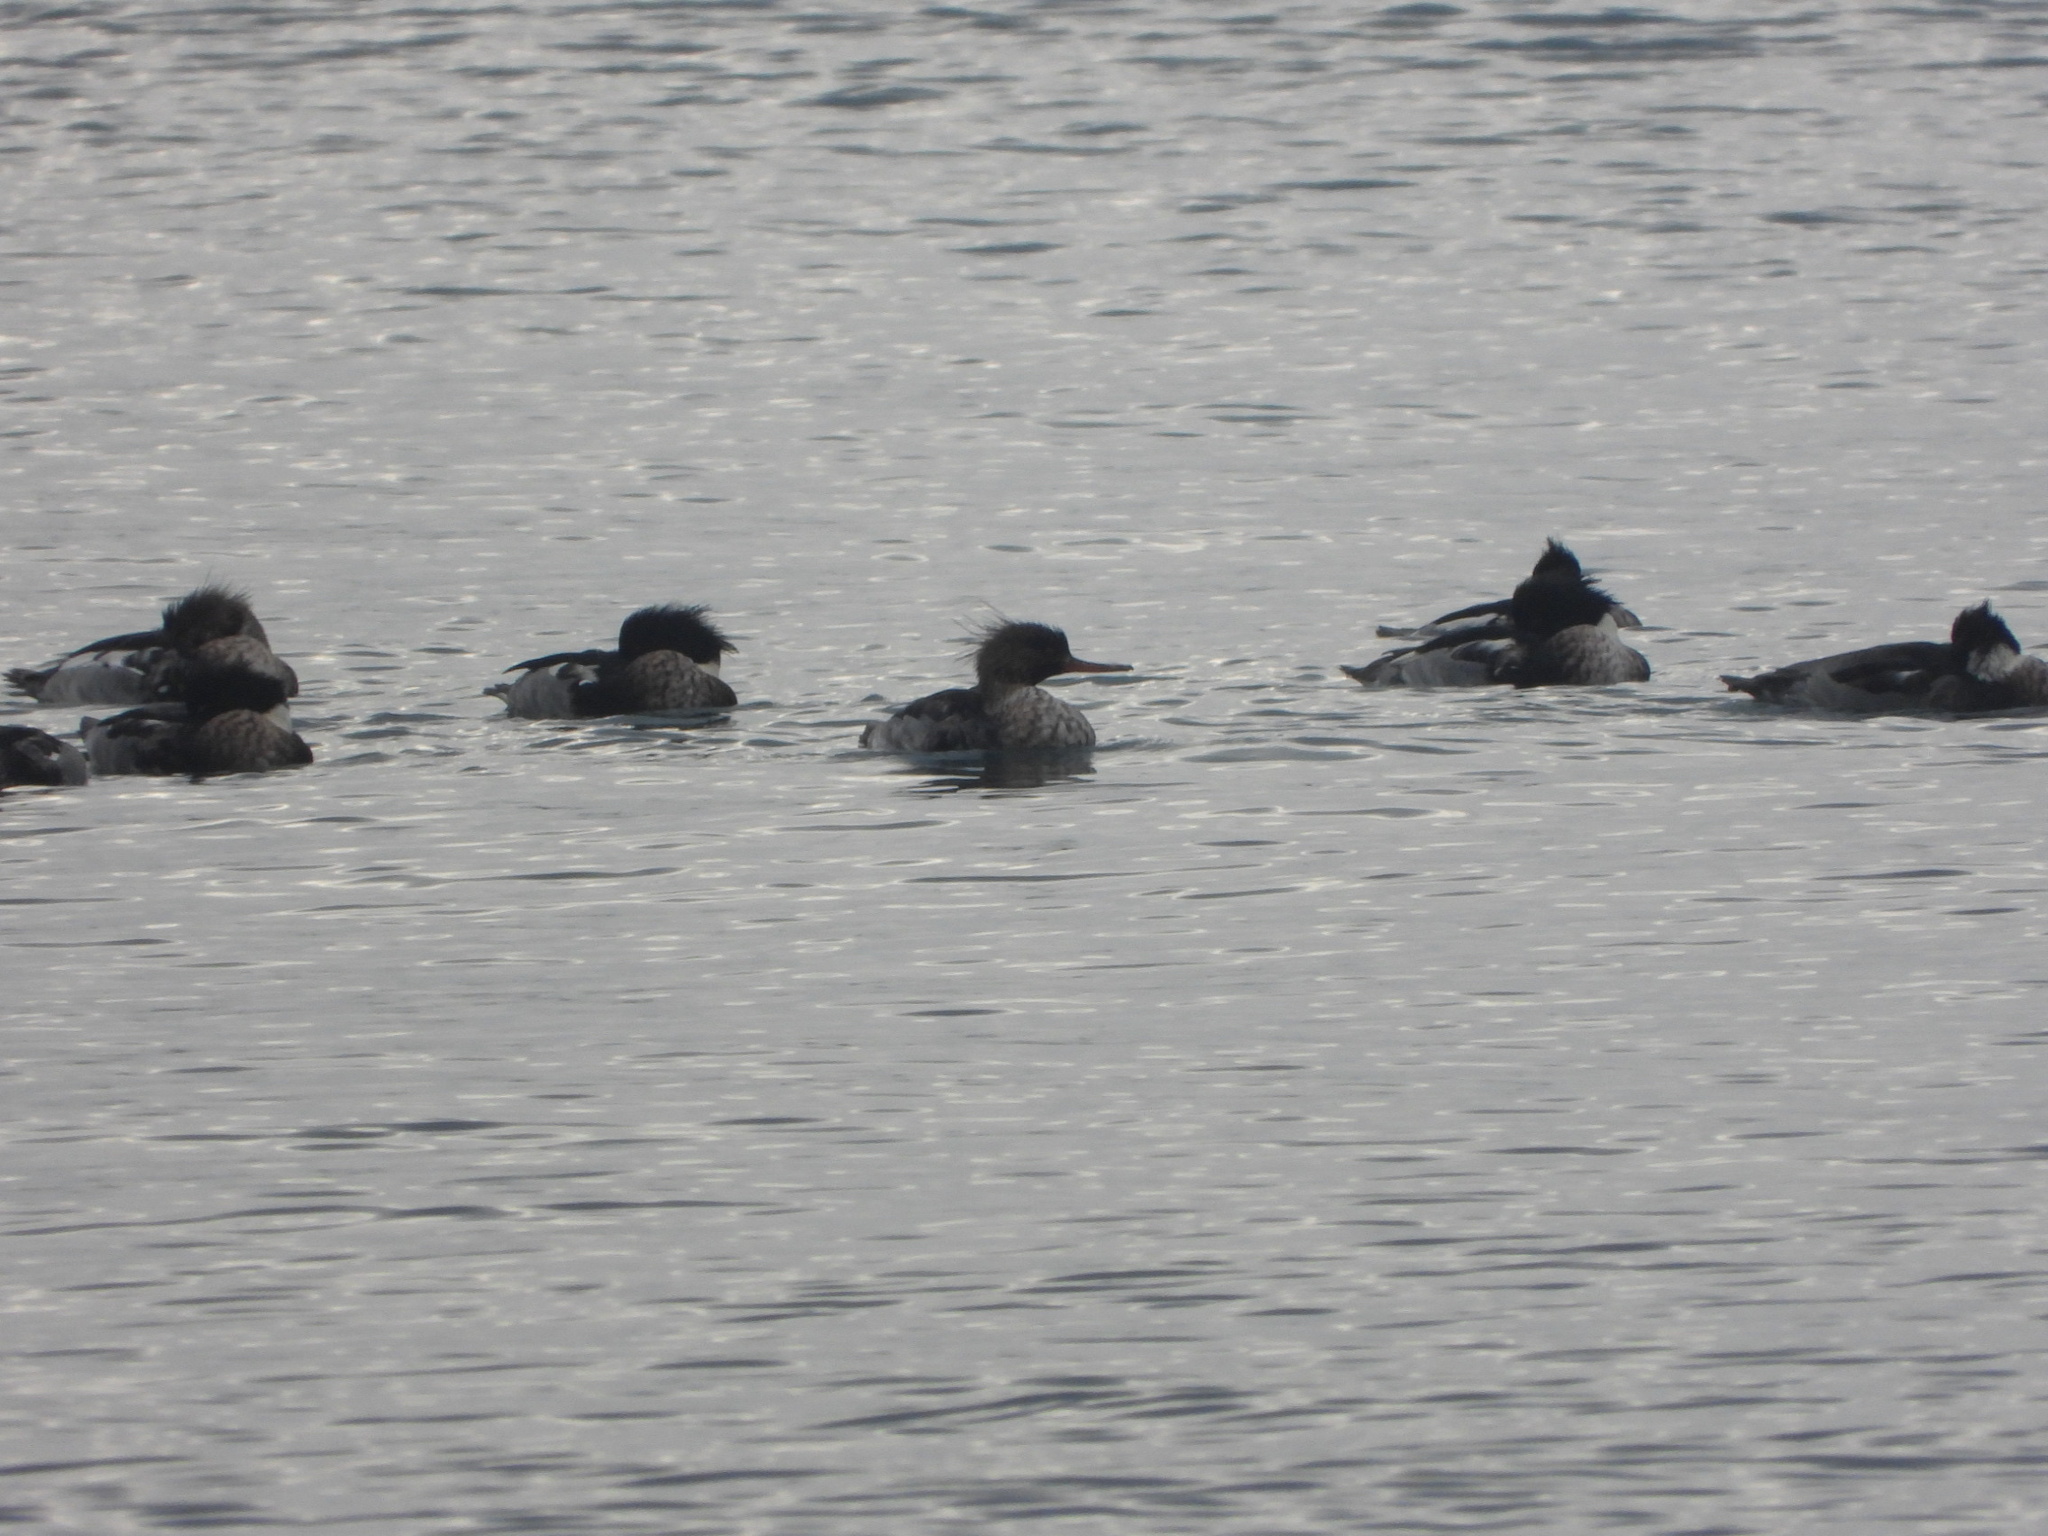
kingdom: Animalia
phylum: Chordata
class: Aves
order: Anseriformes
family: Anatidae
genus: Mergus
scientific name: Mergus serrator
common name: Red-breasted merganser
